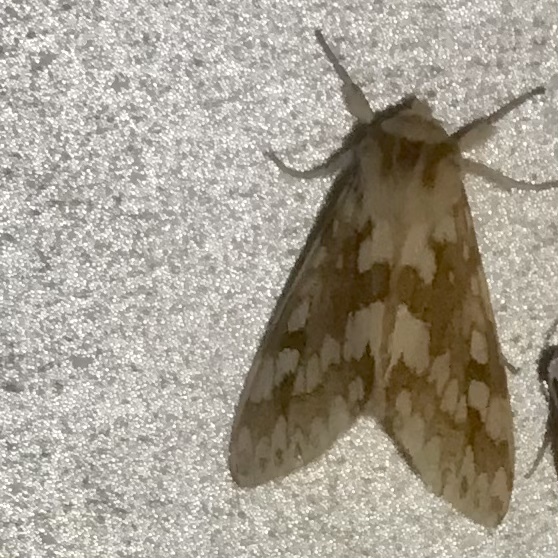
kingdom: Animalia
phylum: Arthropoda
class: Insecta
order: Lepidoptera
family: Erebidae
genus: Lophocampa
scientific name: Lophocampa maculata
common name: Spotted tussock moth
